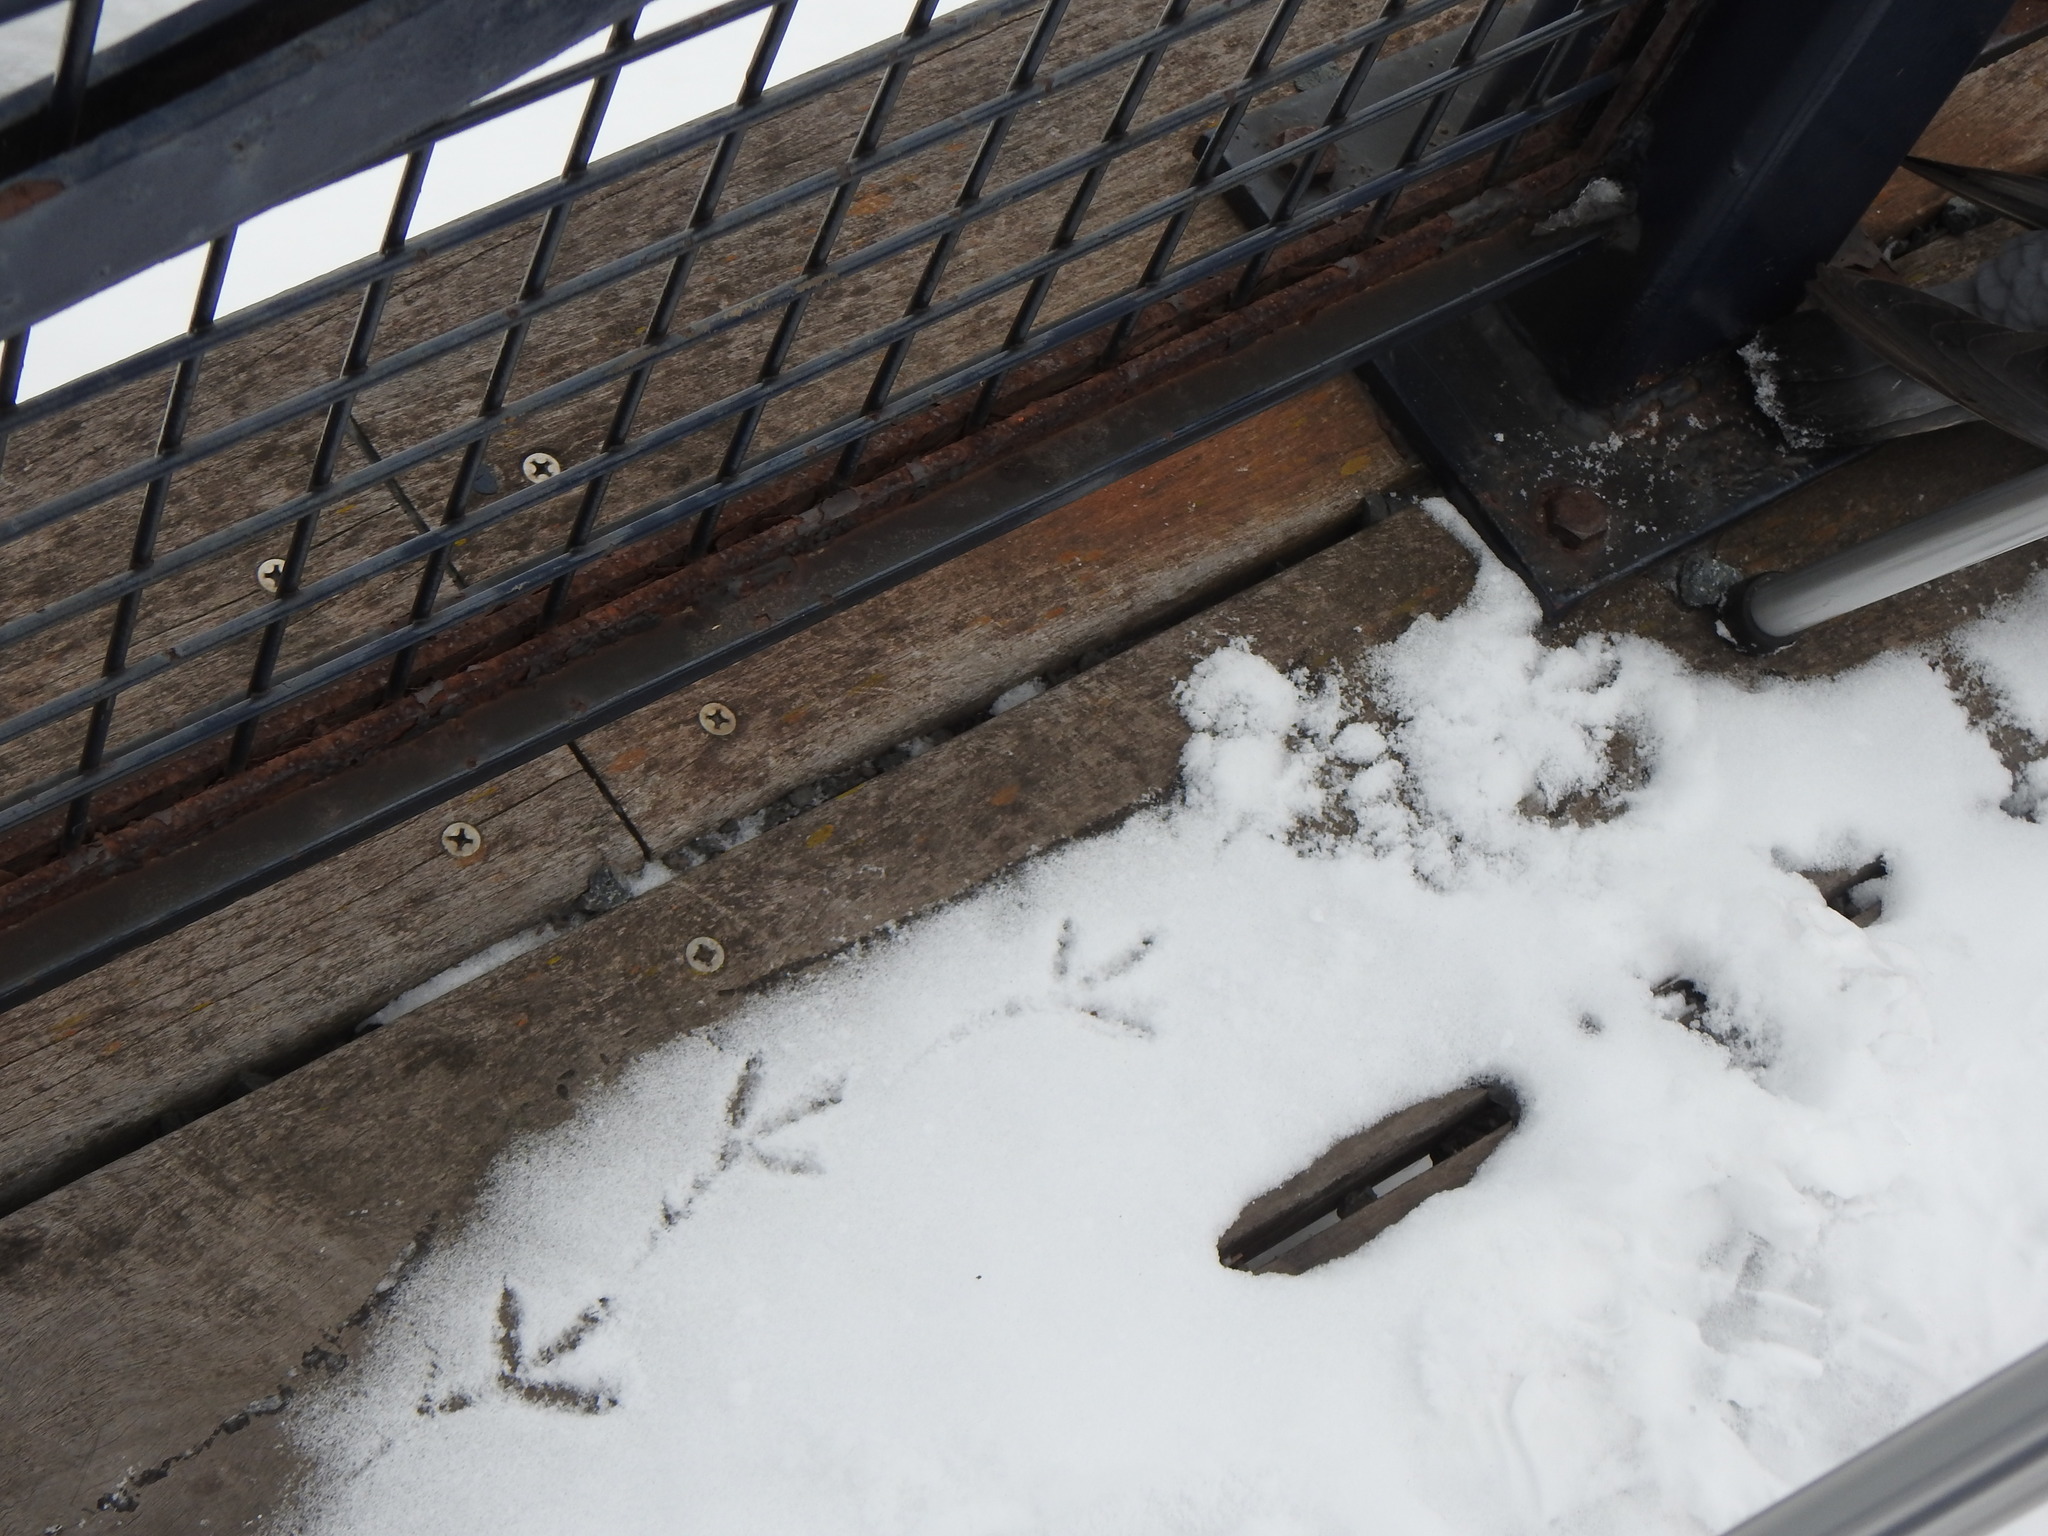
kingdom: Animalia
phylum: Chordata
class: Aves
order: Columbiformes
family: Columbidae
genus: Columba
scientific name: Columba livia
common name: Rock pigeon
